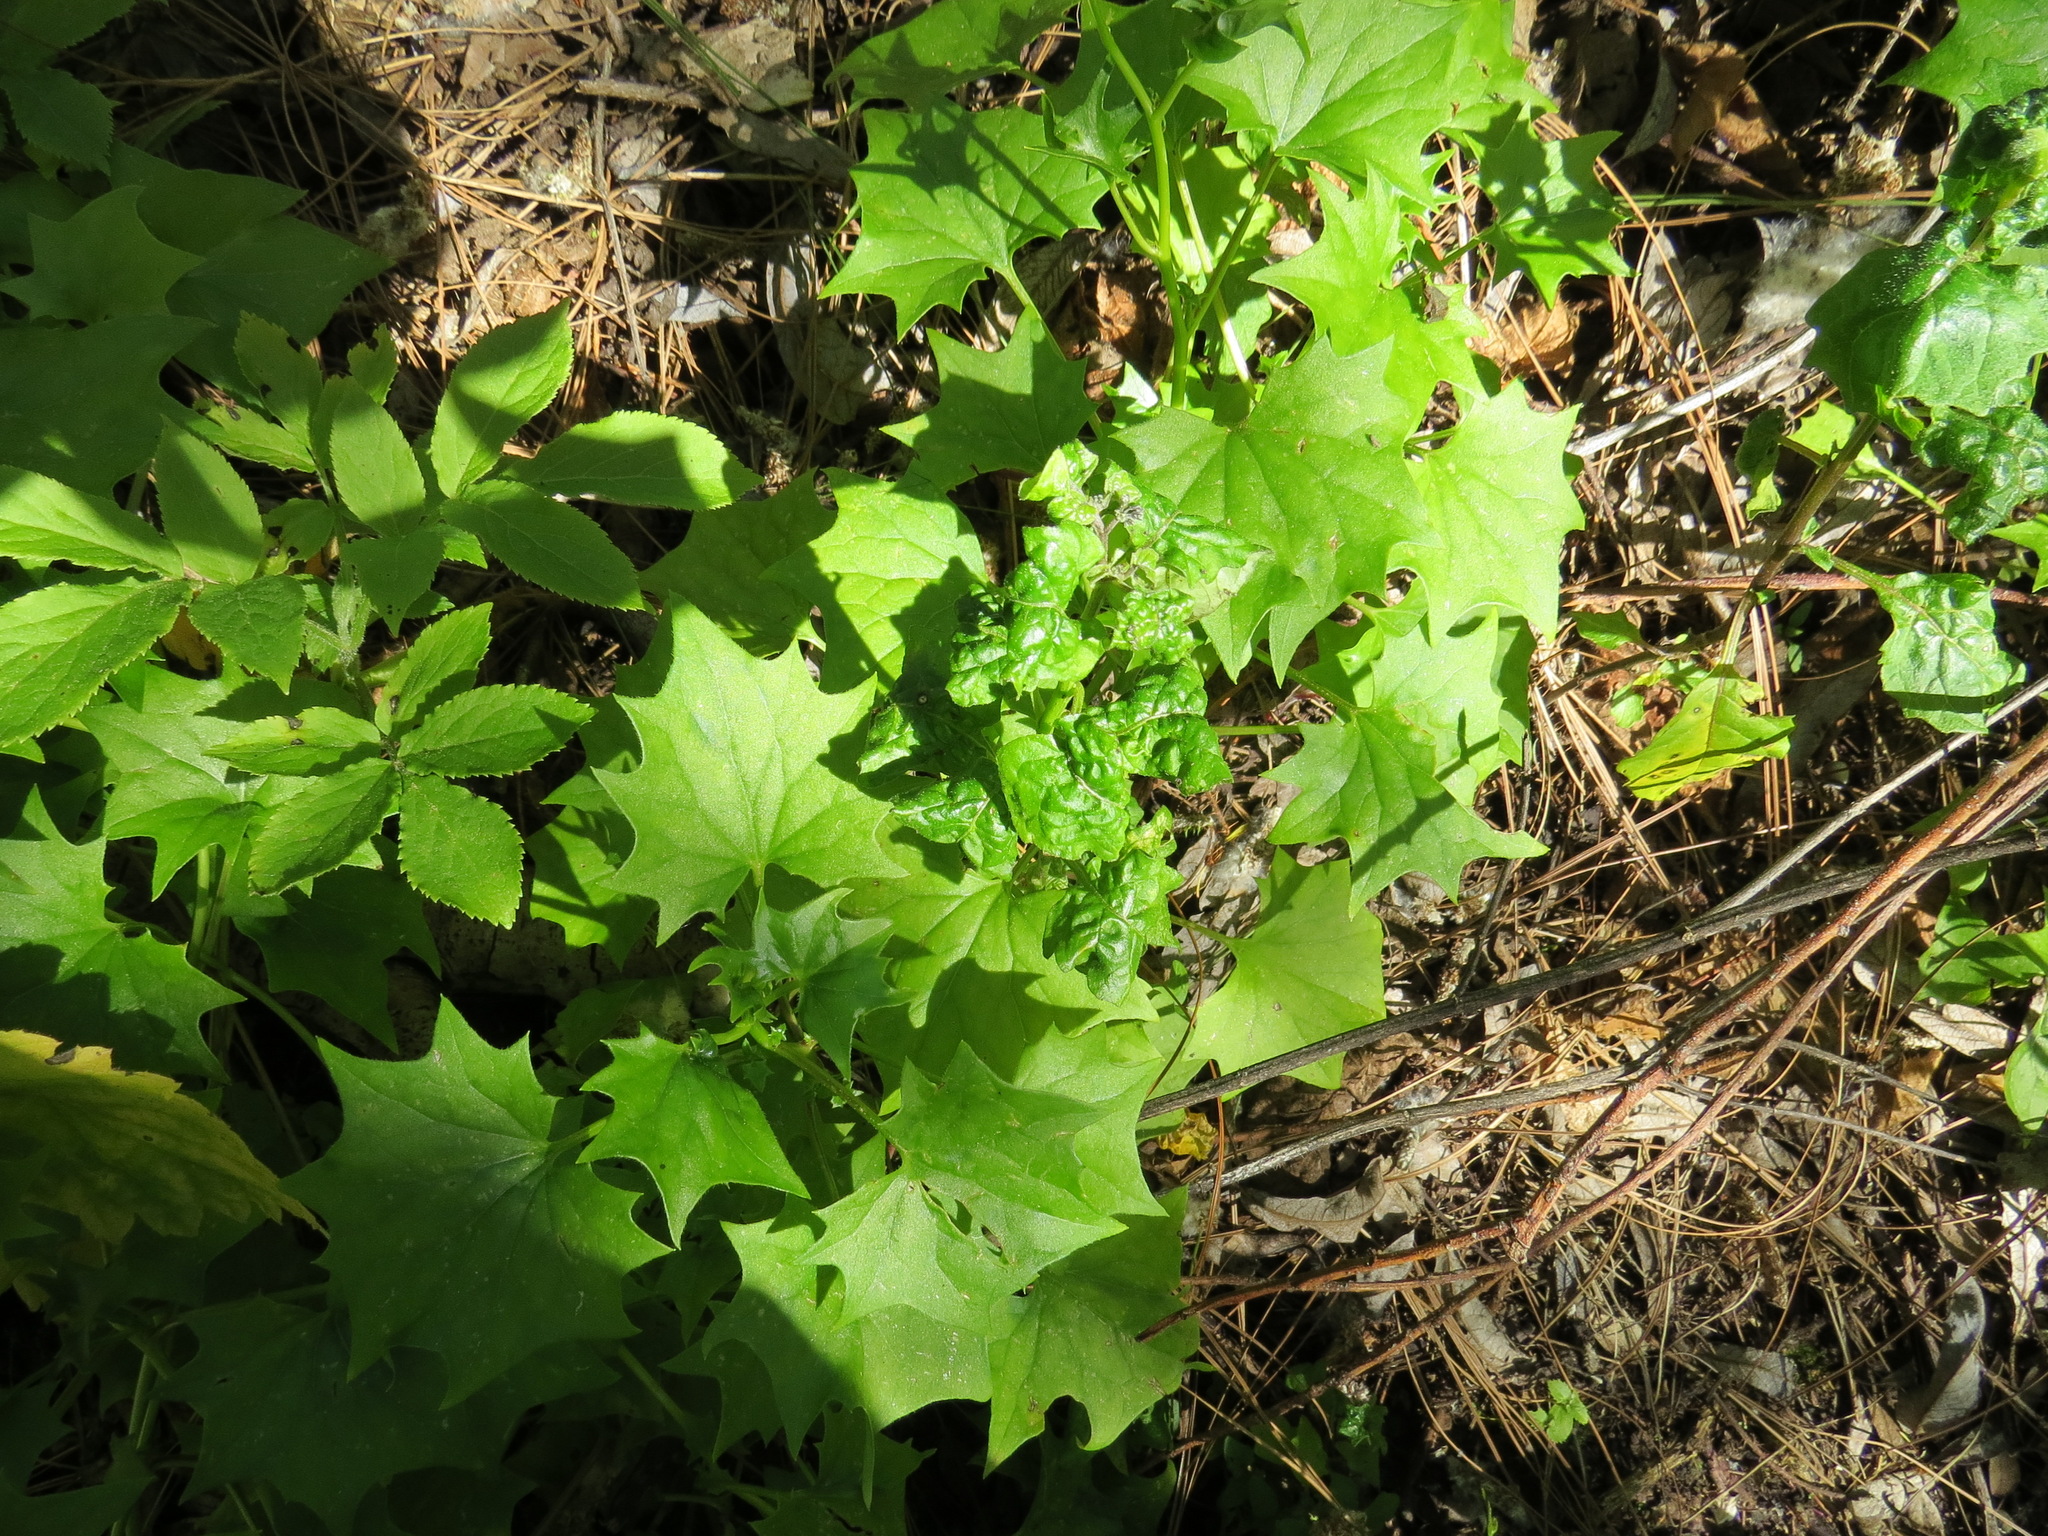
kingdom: Plantae
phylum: Tracheophyta
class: Magnoliopsida
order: Asterales
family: Asteraceae
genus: Delairea
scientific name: Delairea odorata
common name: Cape-ivy
